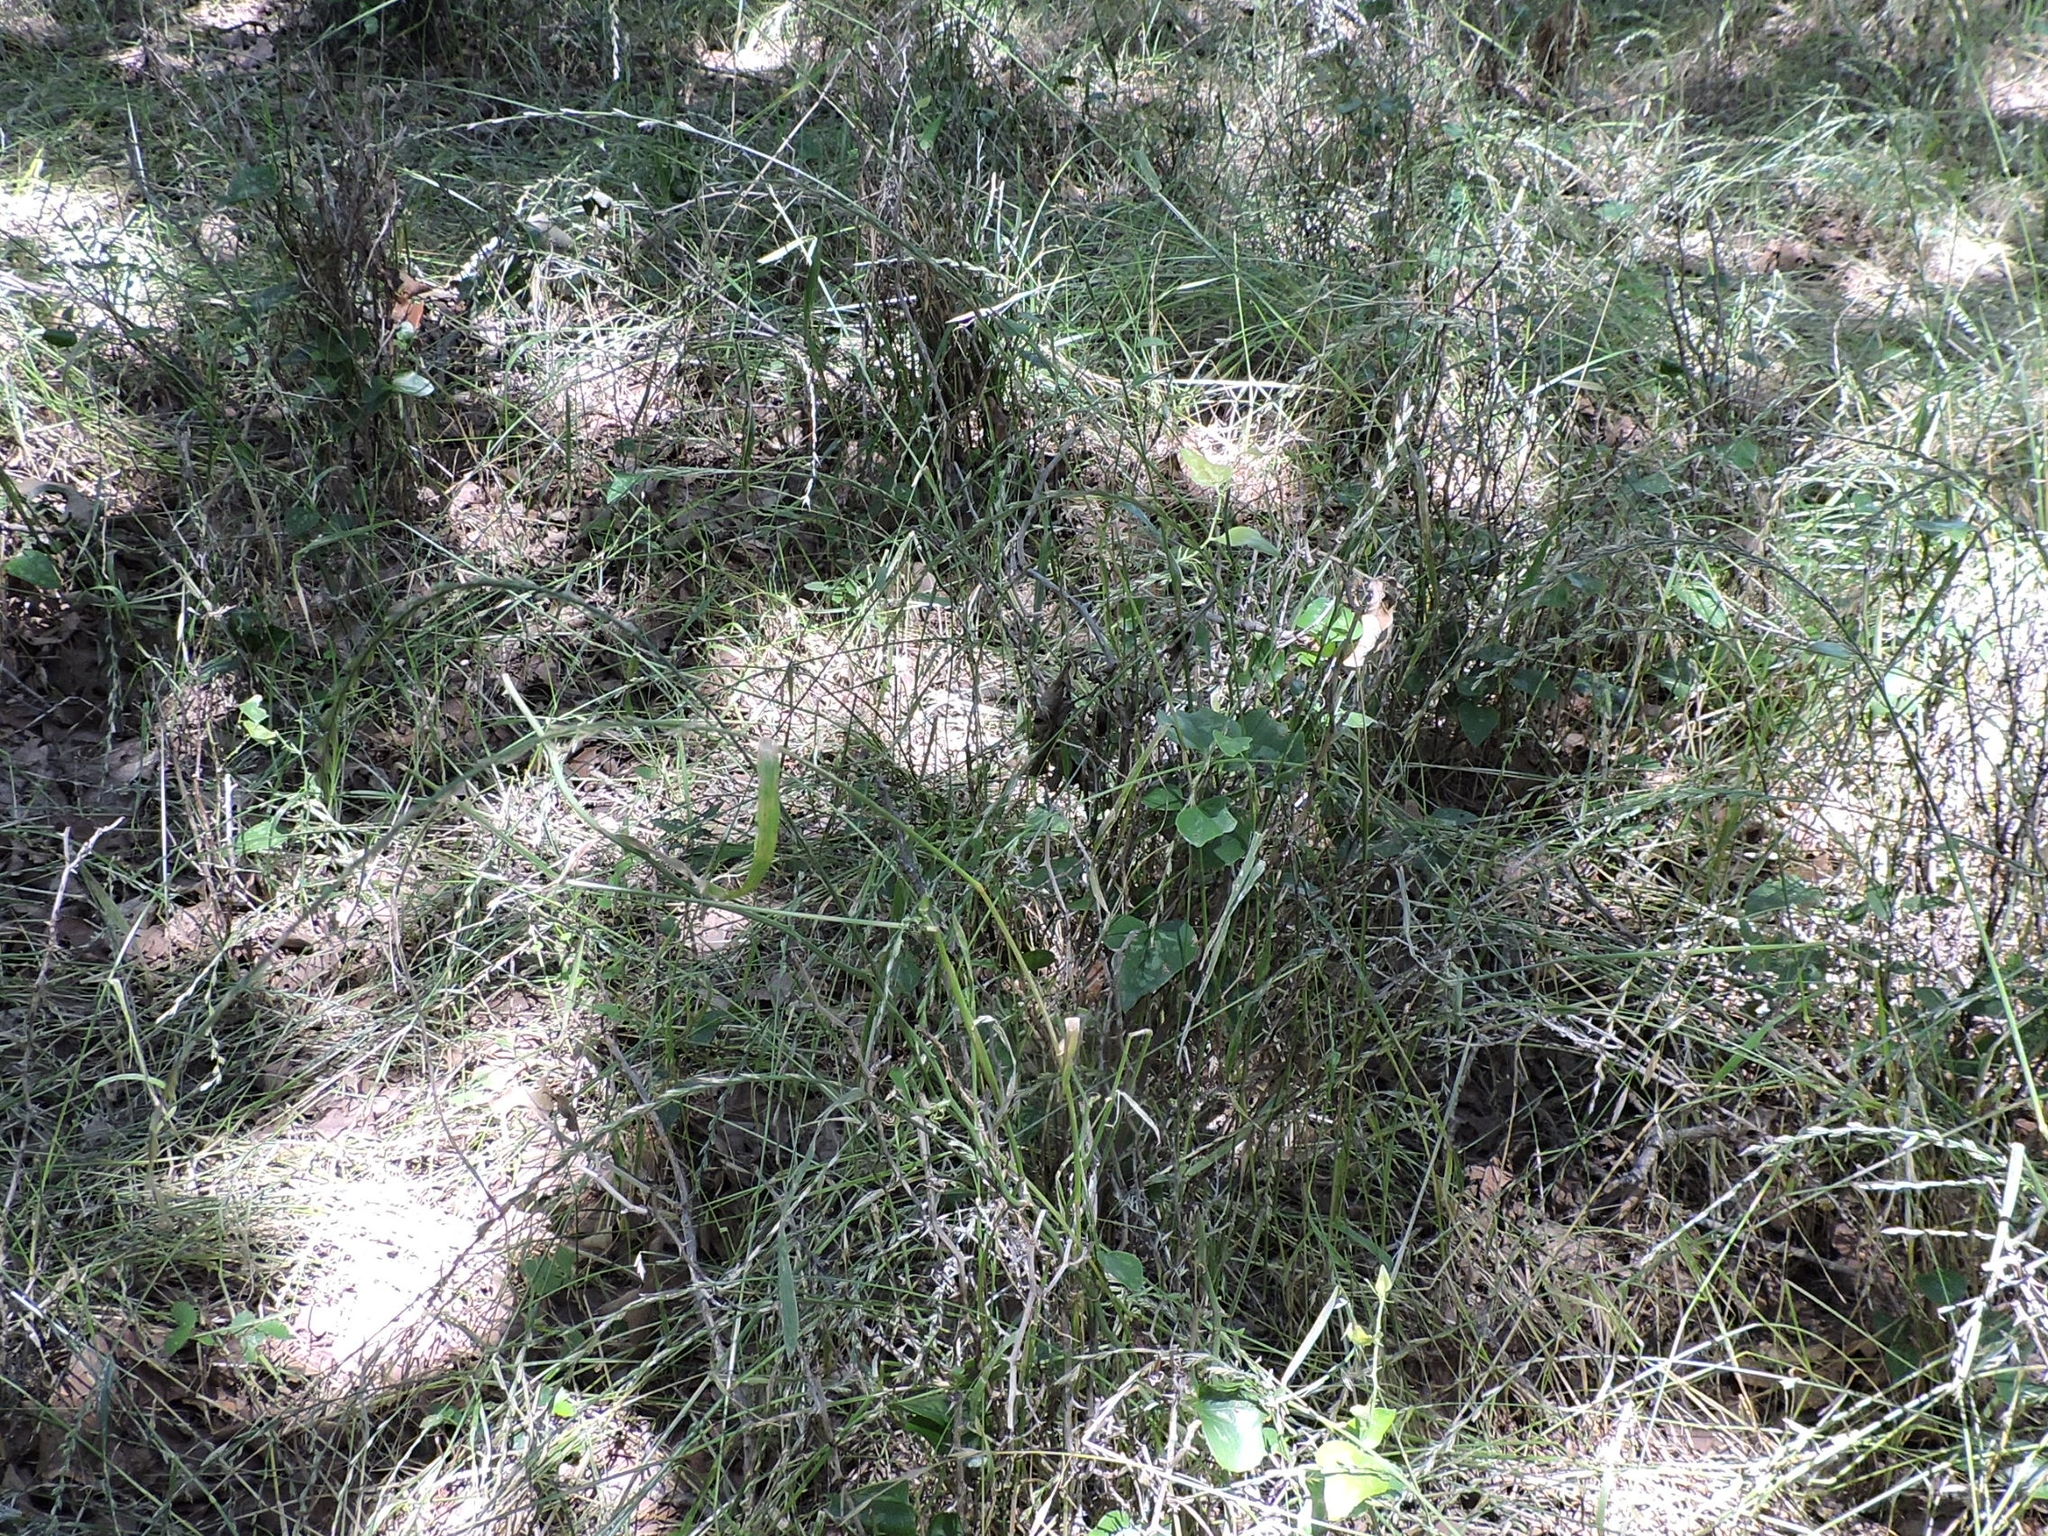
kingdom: Plantae
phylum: Tracheophyta
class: Liliopsida
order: Poales
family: Poaceae
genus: Lolium
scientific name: Lolium perenne
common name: Perennial ryegrass
